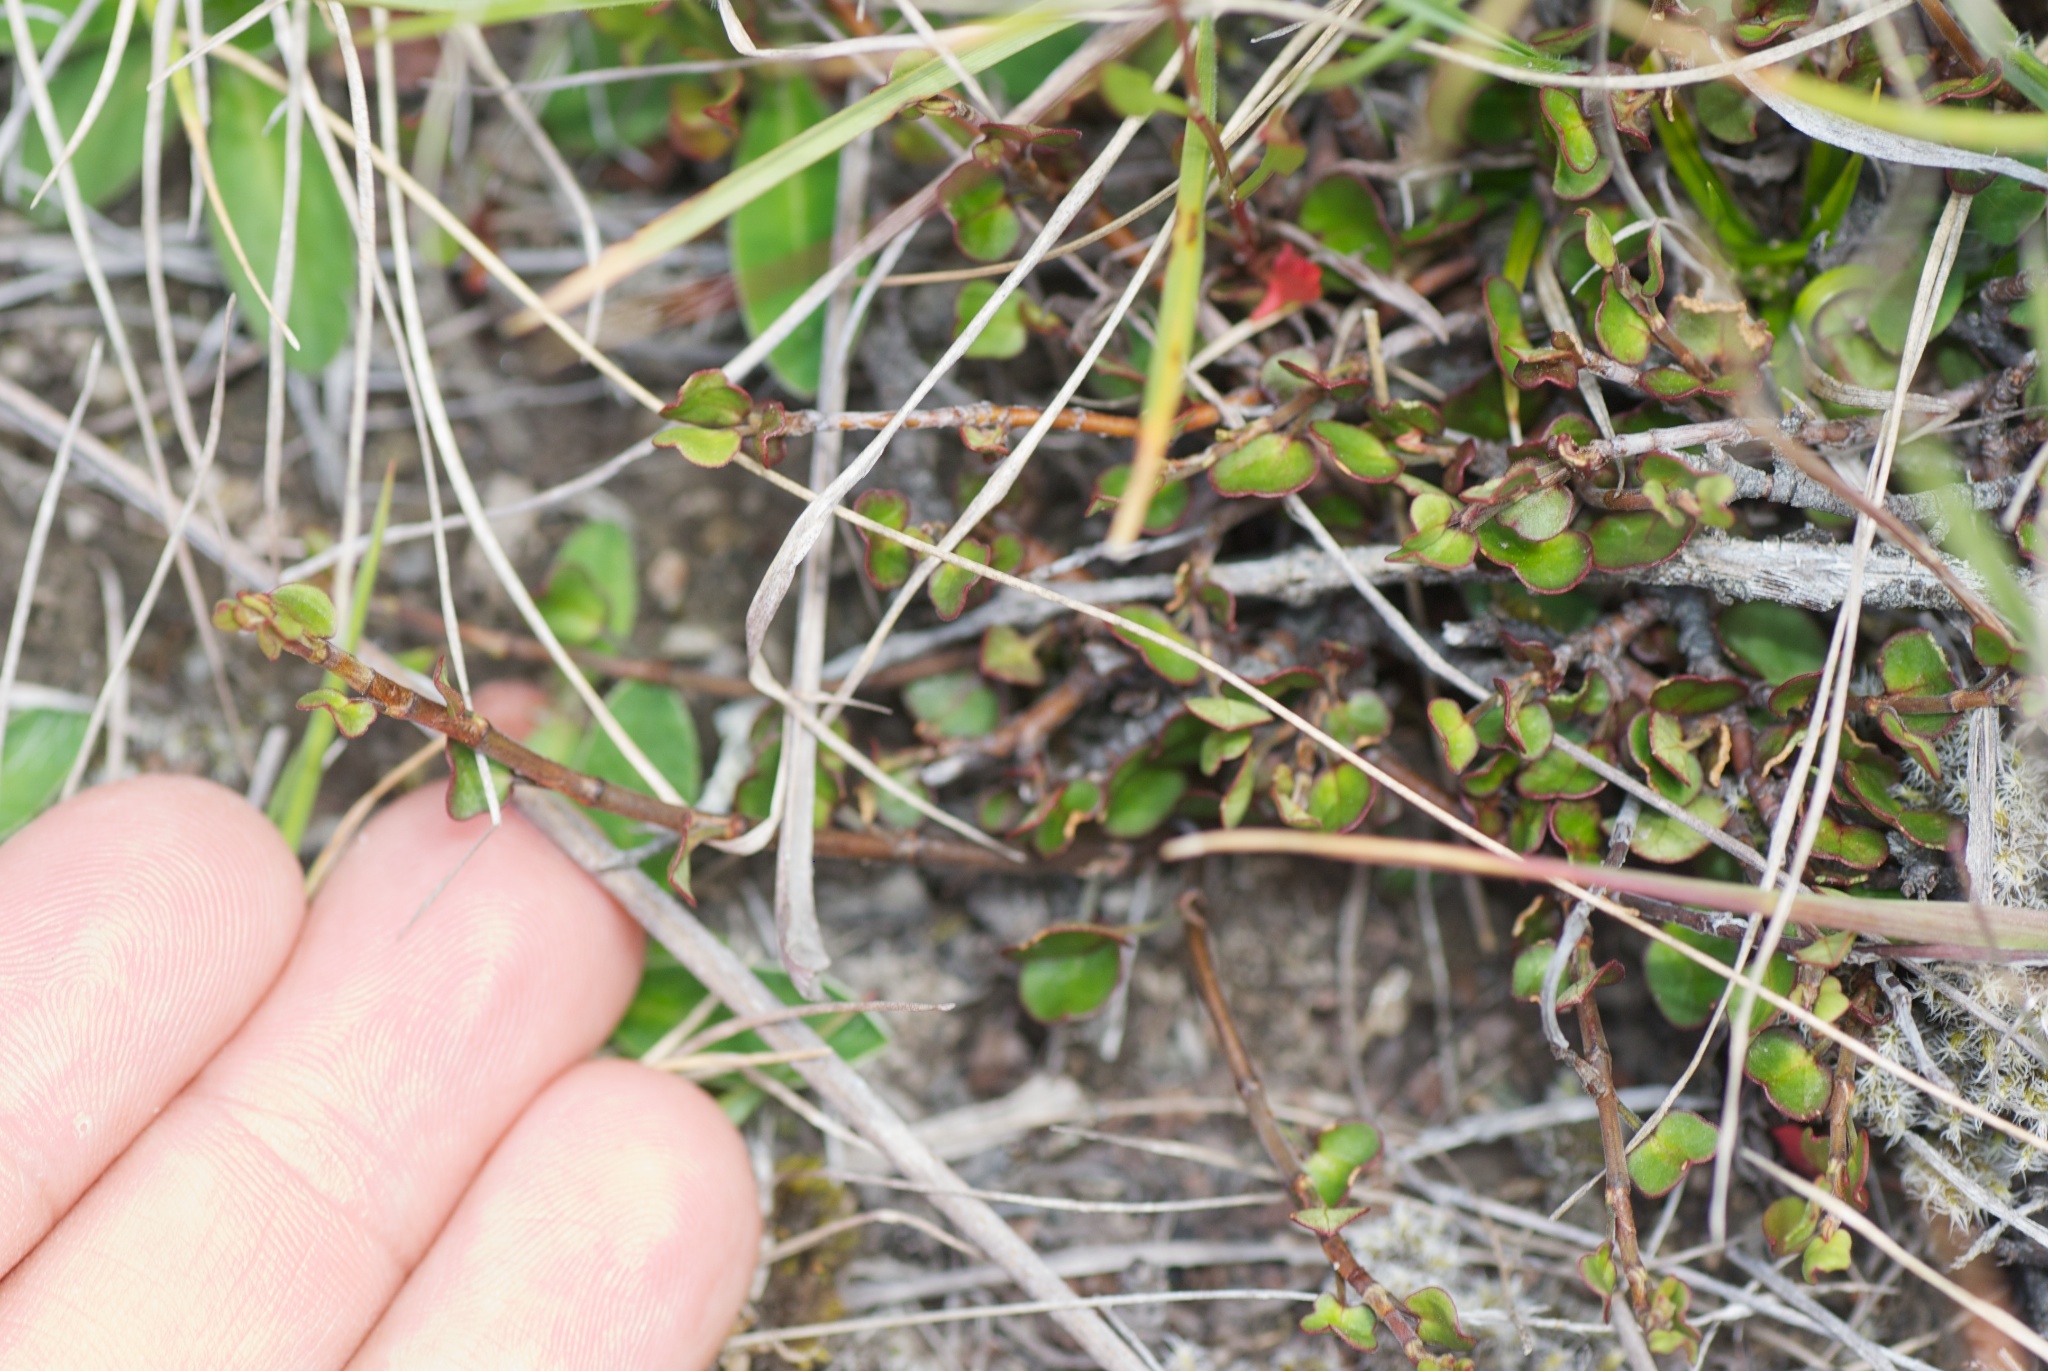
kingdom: Plantae
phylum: Tracheophyta
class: Magnoliopsida
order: Caryophyllales
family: Polygonaceae
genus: Muehlenbeckia
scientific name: Muehlenbeckia axillaris
